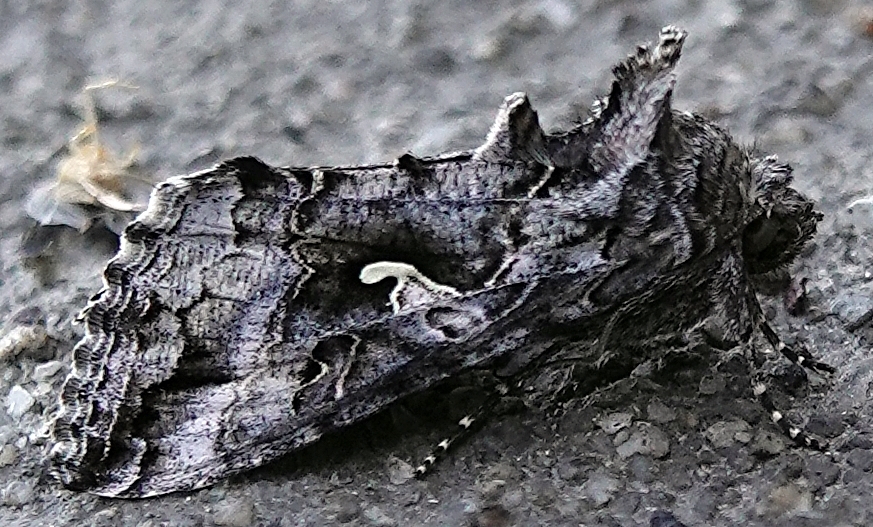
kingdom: Animalia
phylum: Arthropoda
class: Insecta
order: Lepidoptera
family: Noctuidae
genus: Autographa
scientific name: Autographa californica
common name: Alfalfa looper
